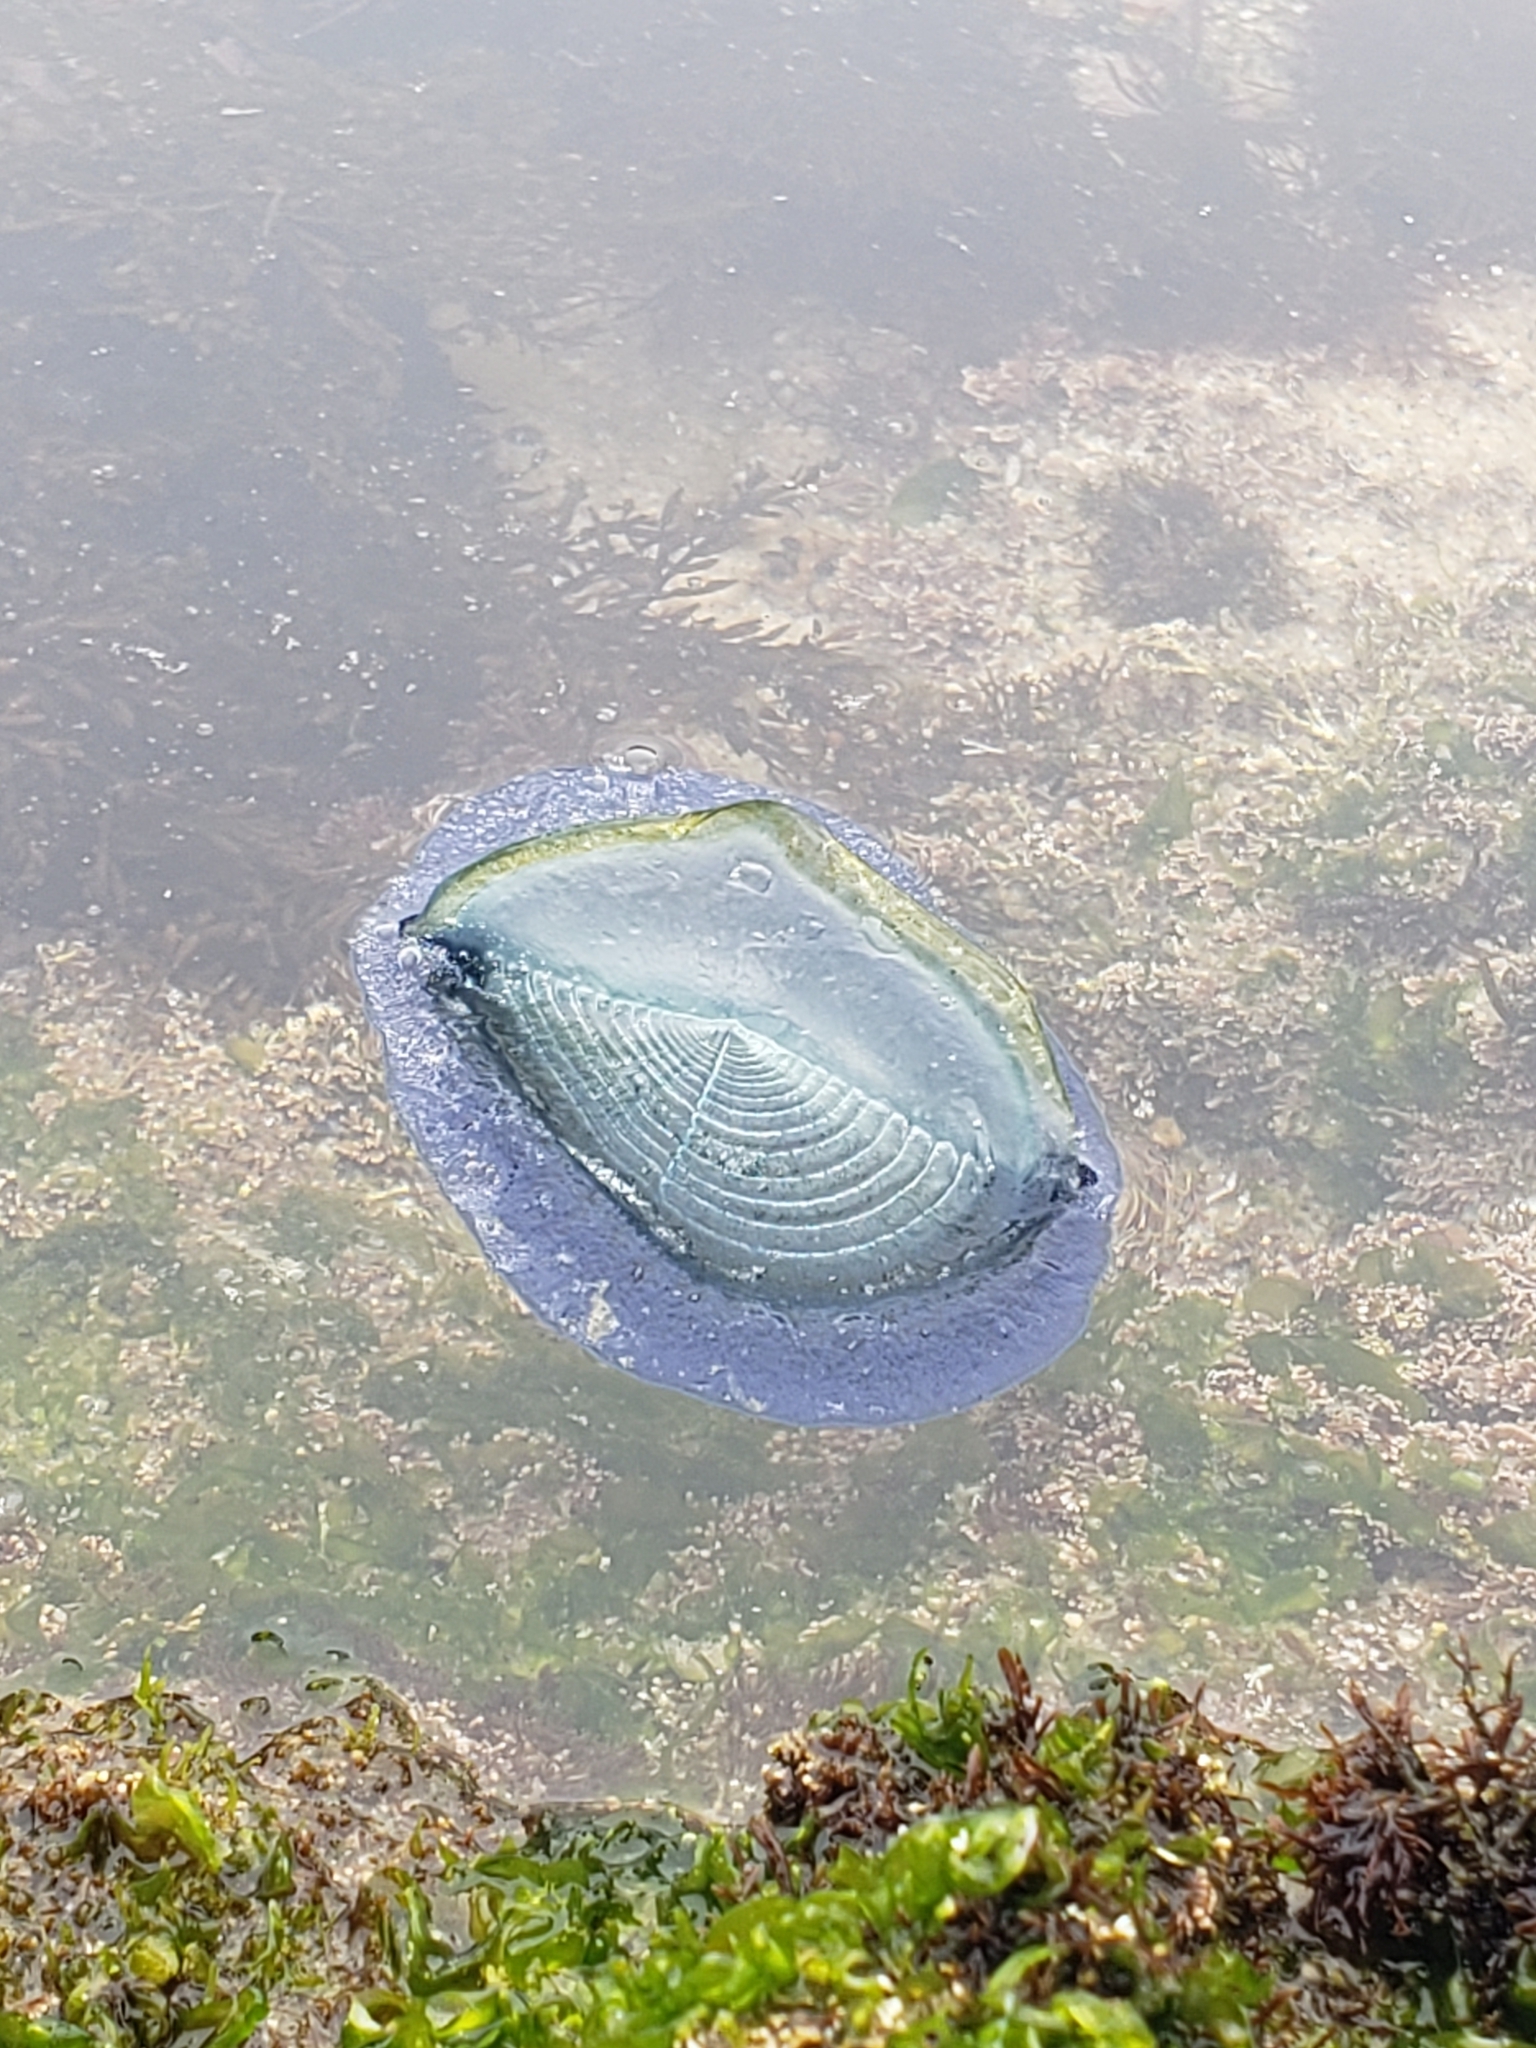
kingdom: Animalia
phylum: Cnidaria
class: Hydrozoa
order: Anthoathecata
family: Porpitidae
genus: Velella
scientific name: Velella velella
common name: By-the-wind-sailor
